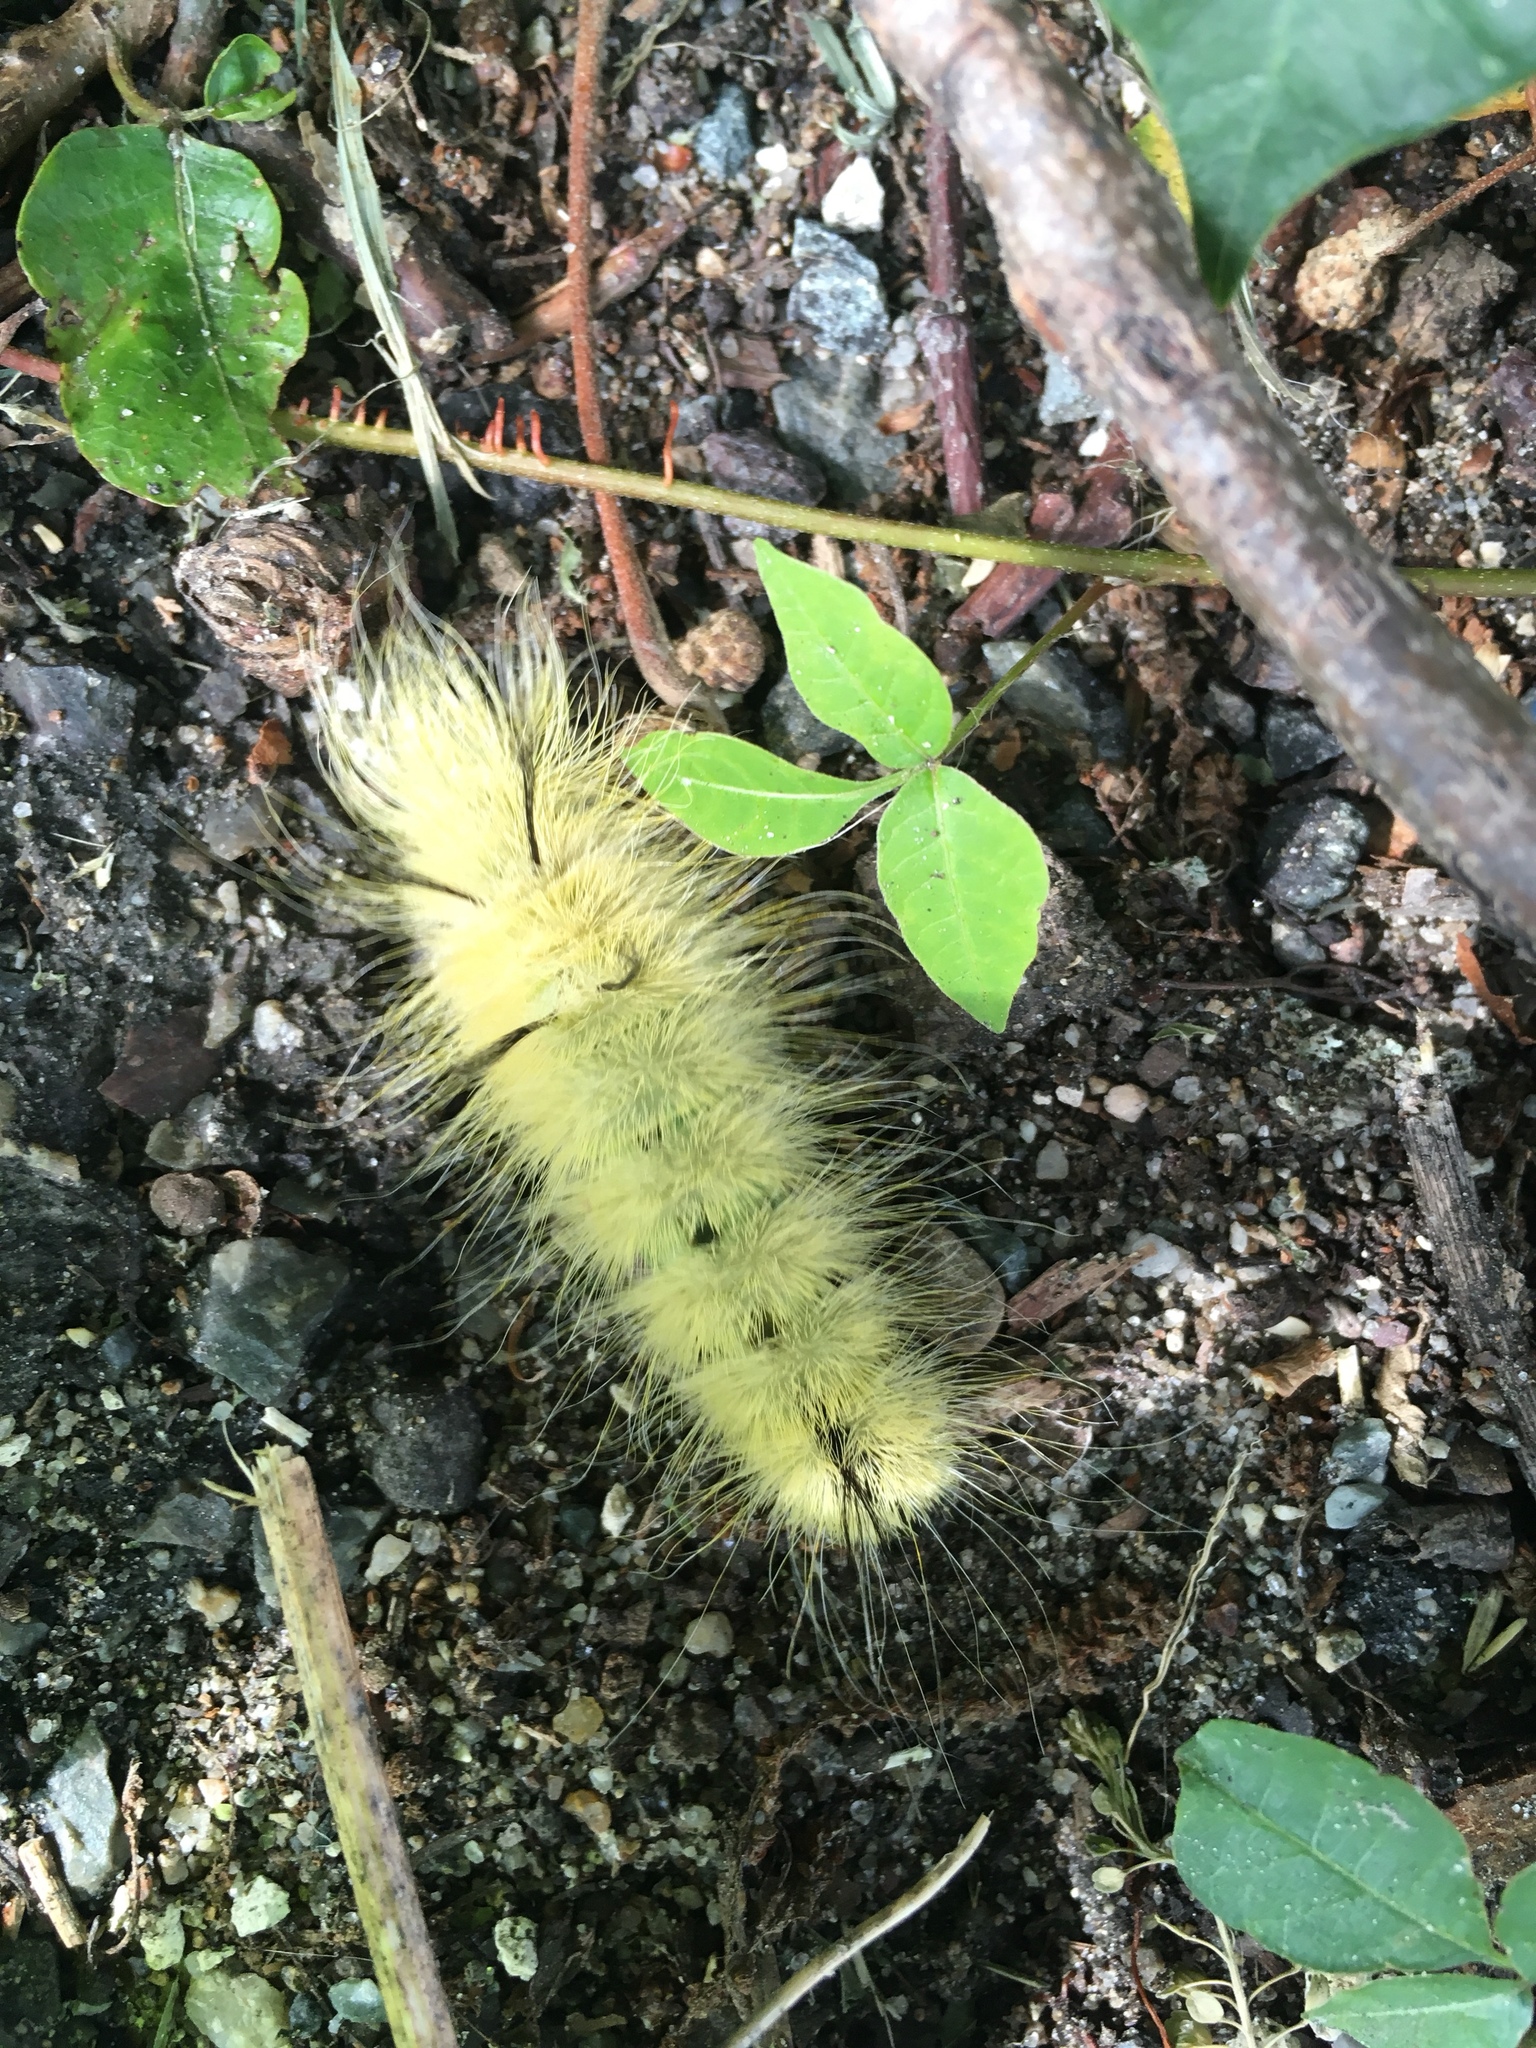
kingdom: Animalia
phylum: Arthropoda
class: Insecta
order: Lepidoptera
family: Noctuidae
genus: Acronicta
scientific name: Acronicta americana
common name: American dagger
